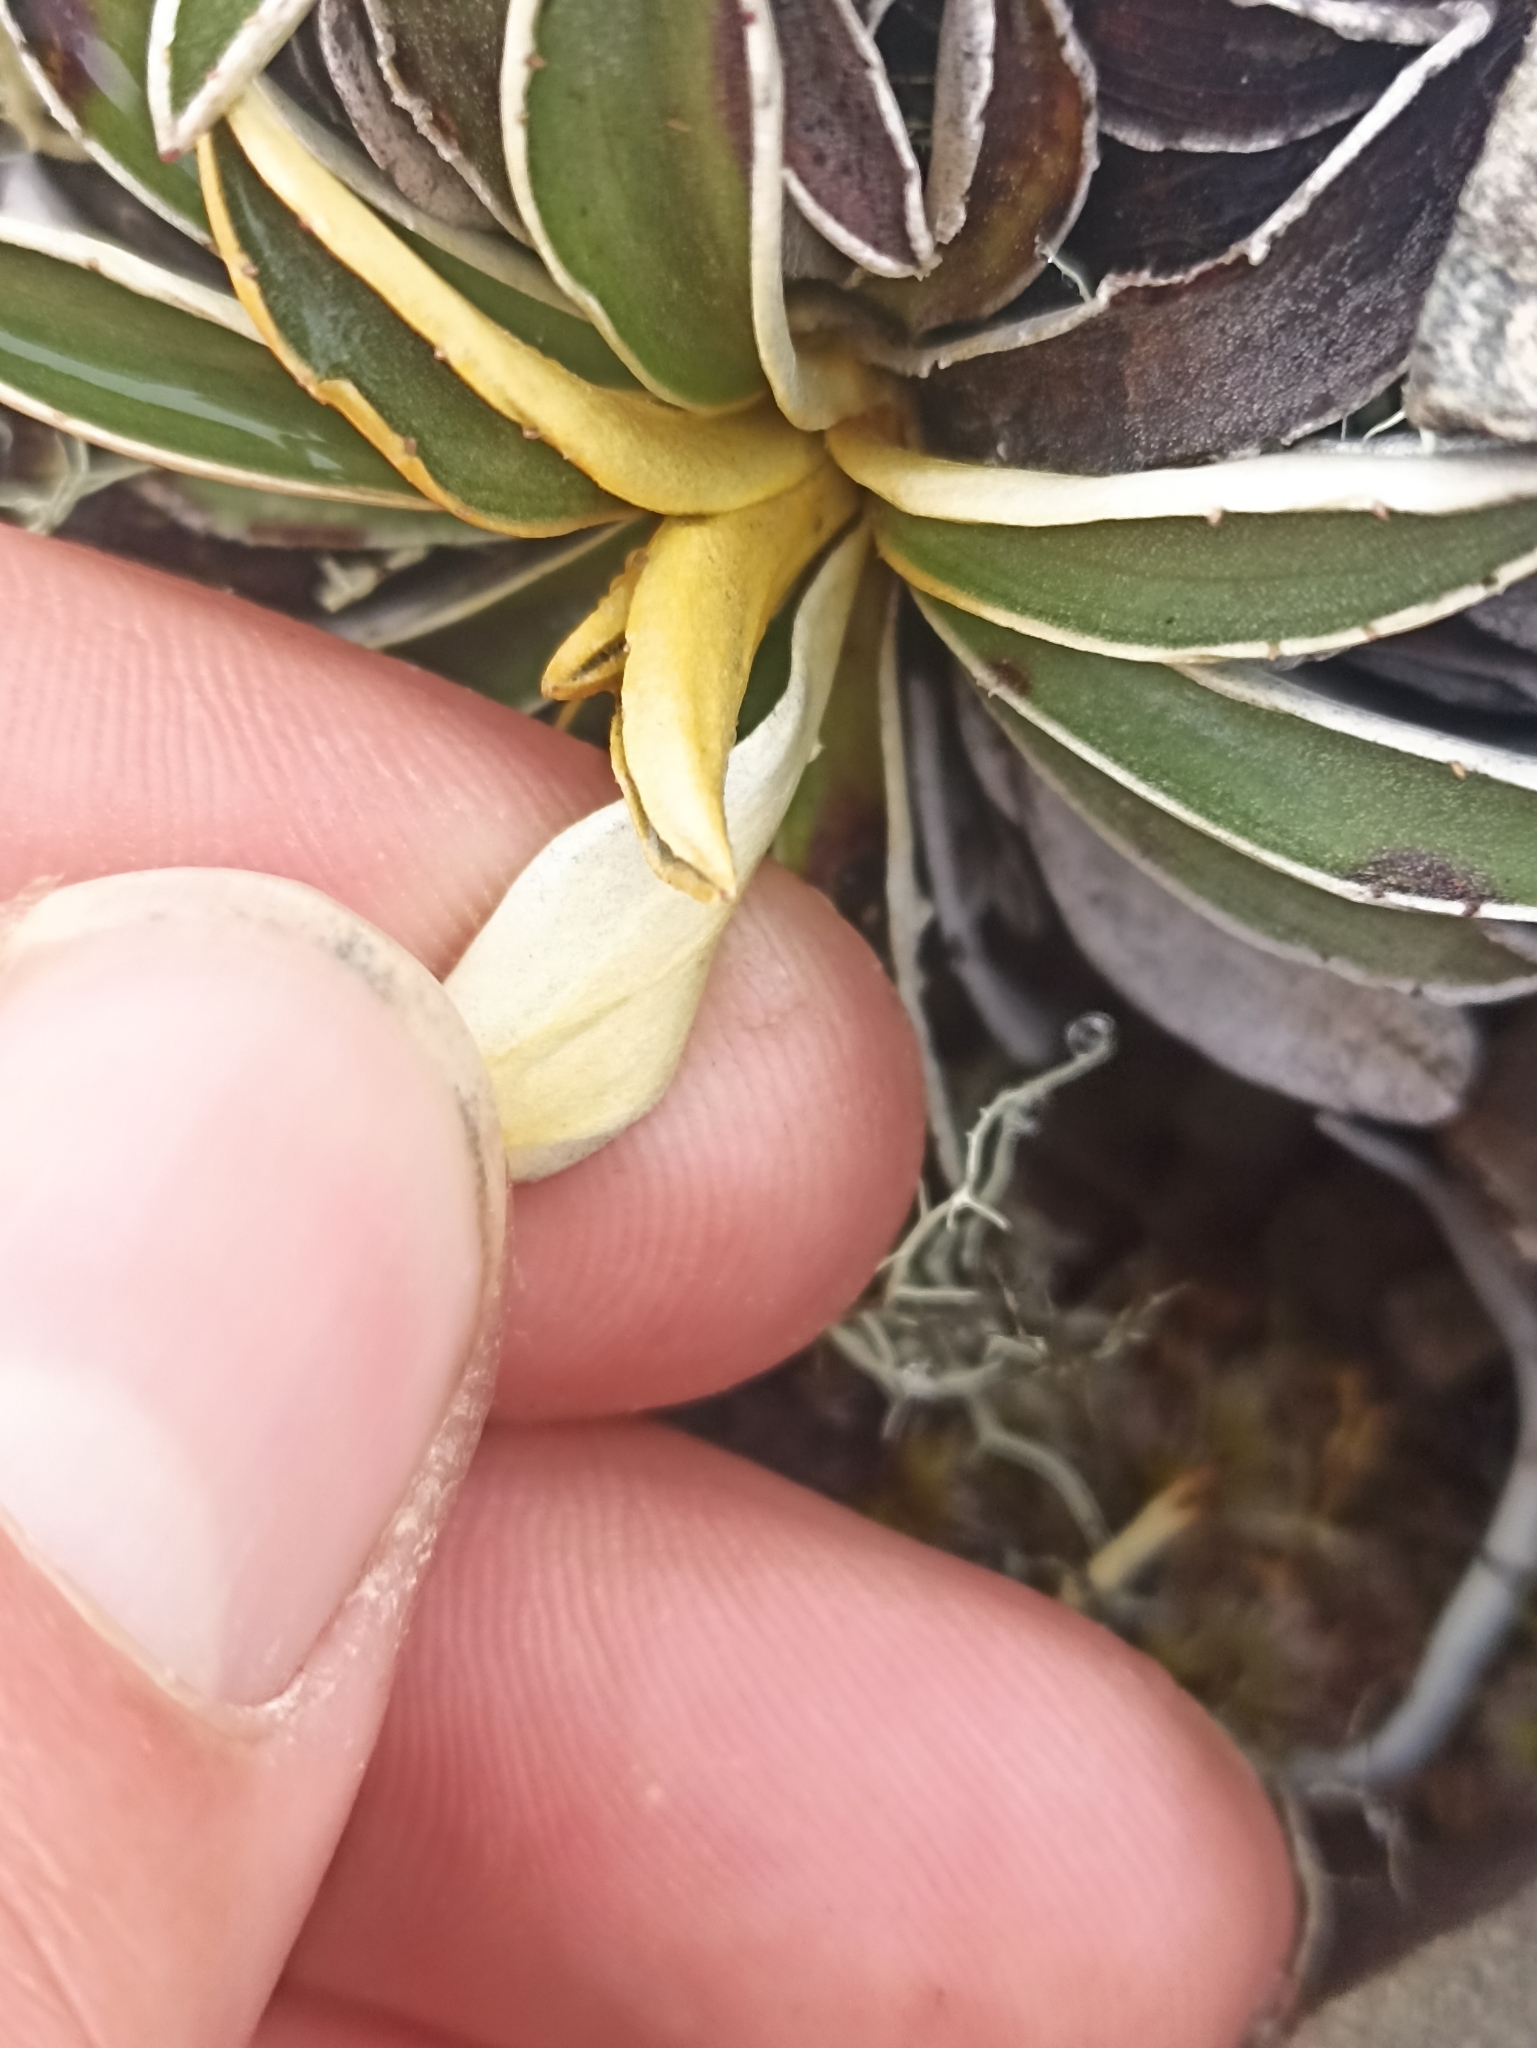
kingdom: Plantae
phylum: Tracheophyta
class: Magnoliopsida
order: Asterales
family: Asteraceae
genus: Celmisia
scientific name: Celmisia hieraciifolia
